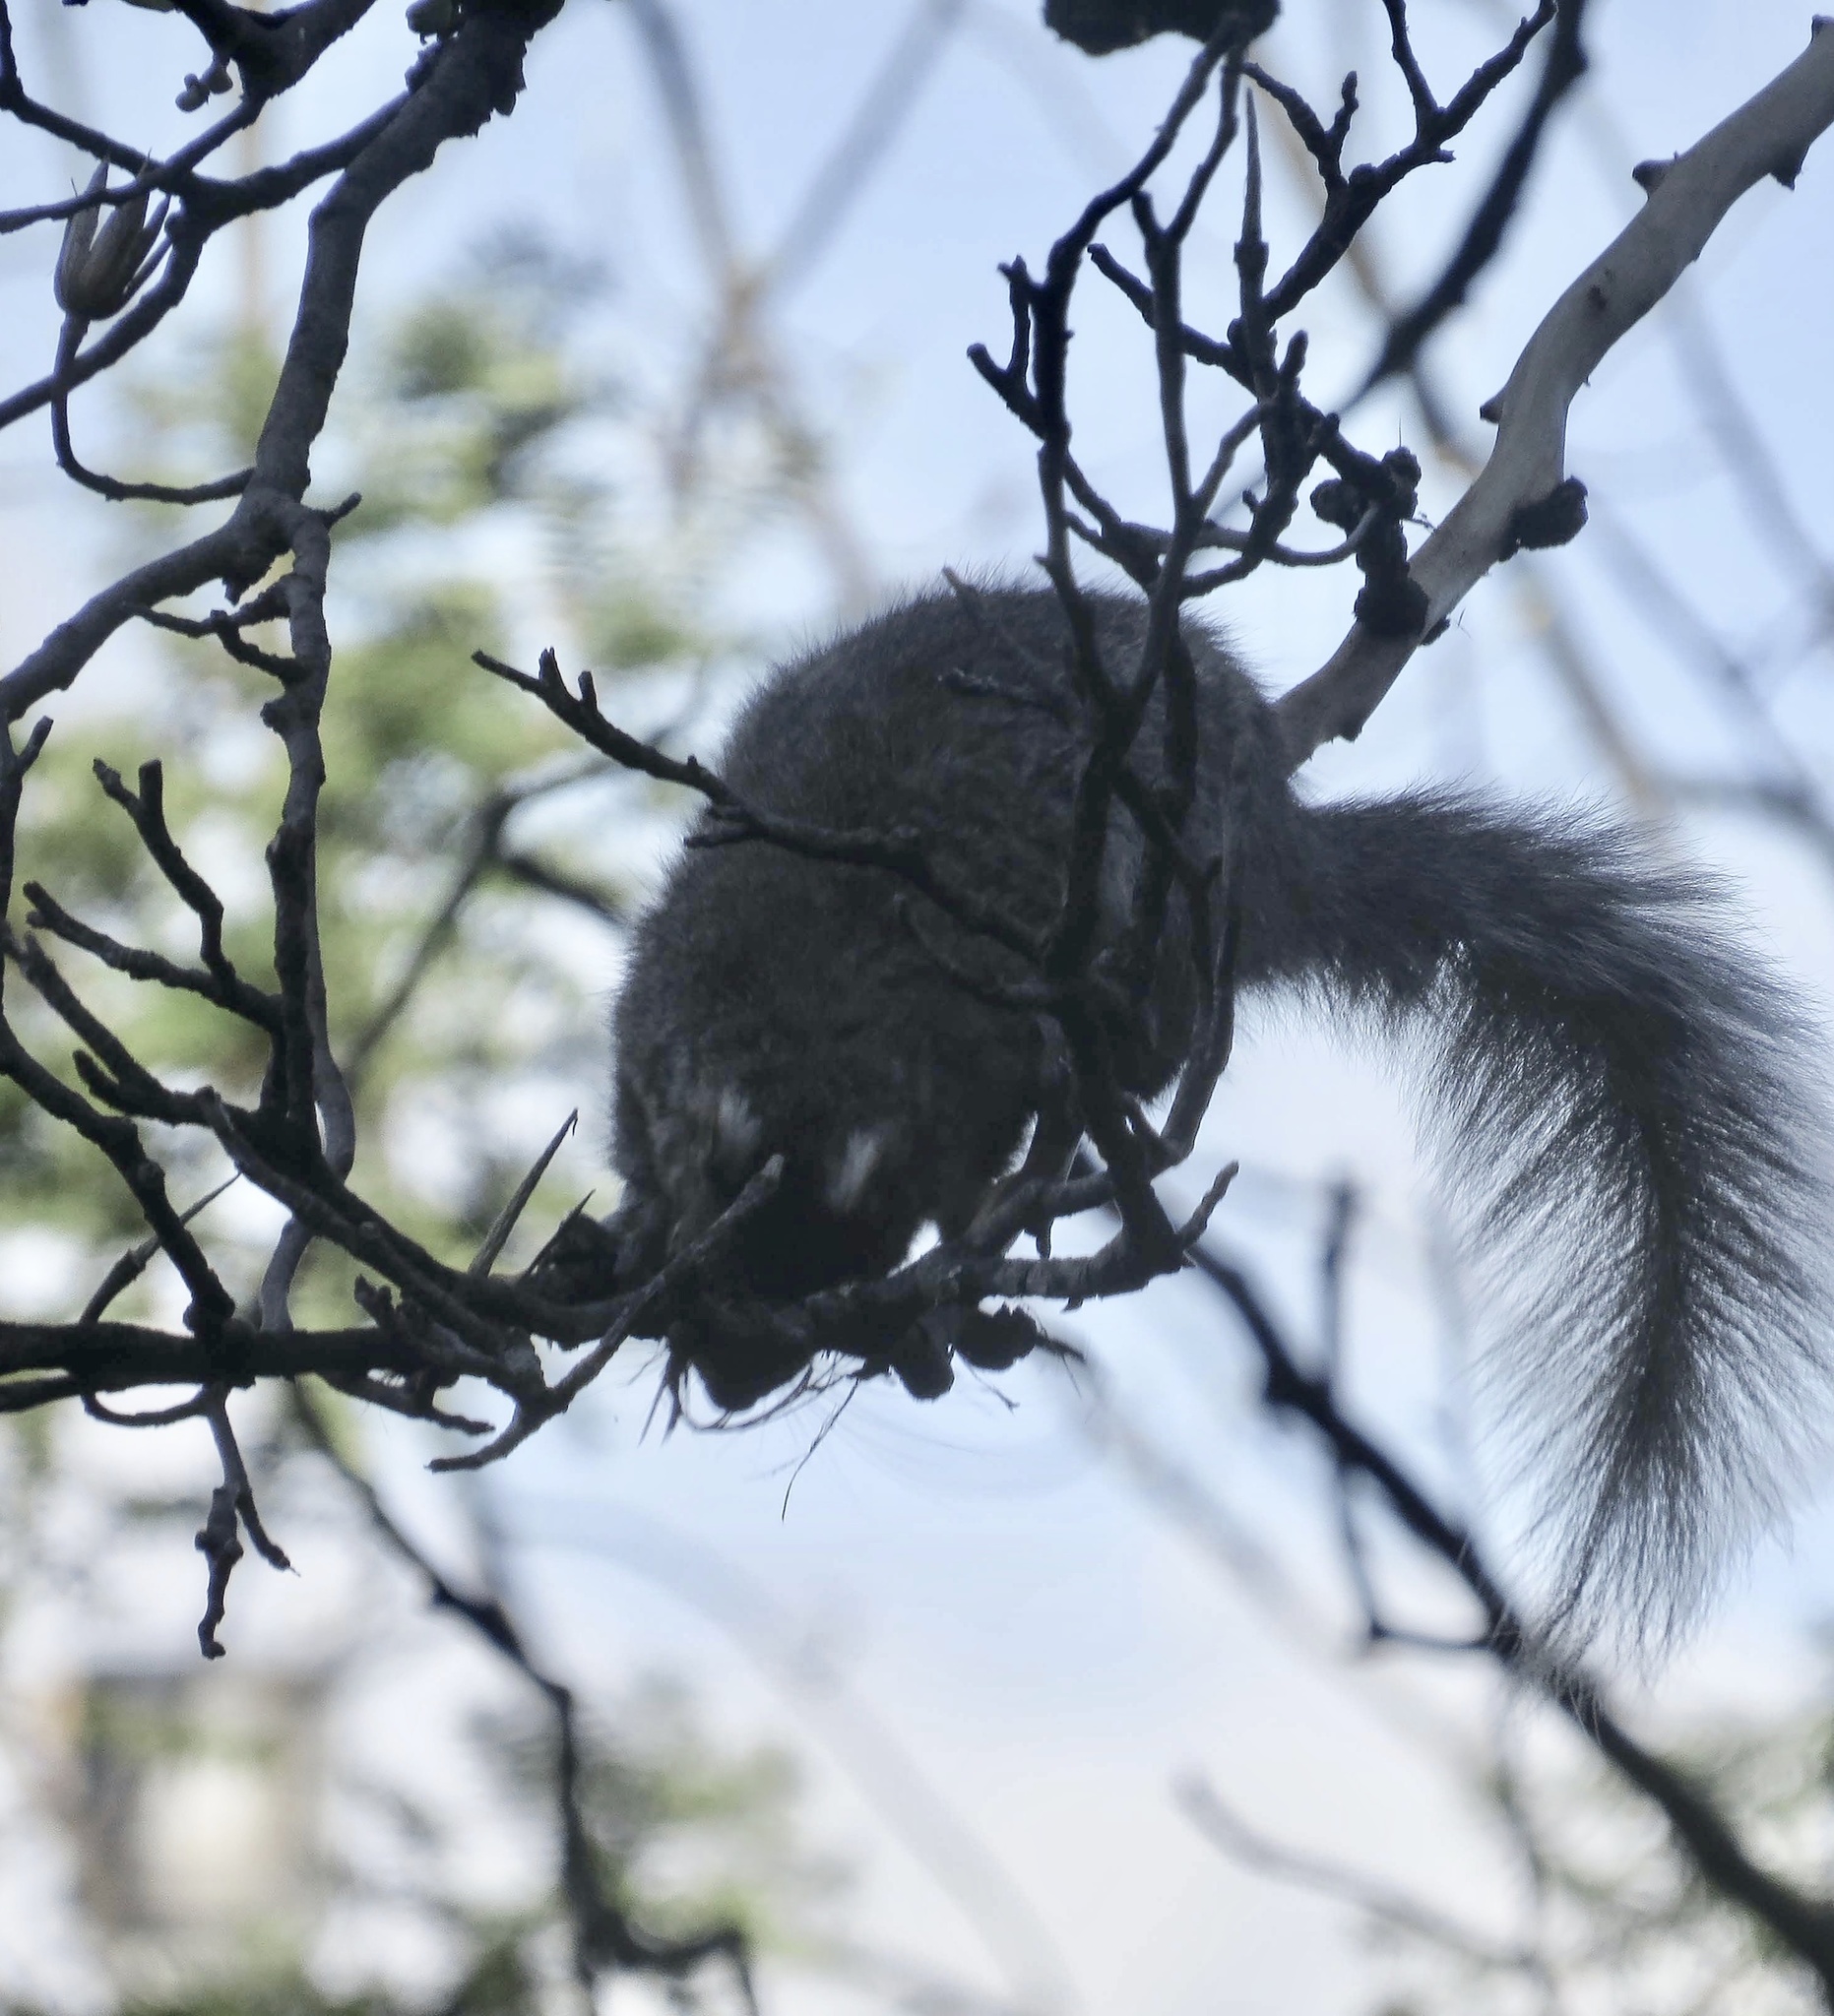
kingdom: Animalia
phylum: Chordata
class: Mammalia
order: Rodentia
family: Sciuridae
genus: Sciurus
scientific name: Sciurus carolinensis
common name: Eastern gray squirrel
